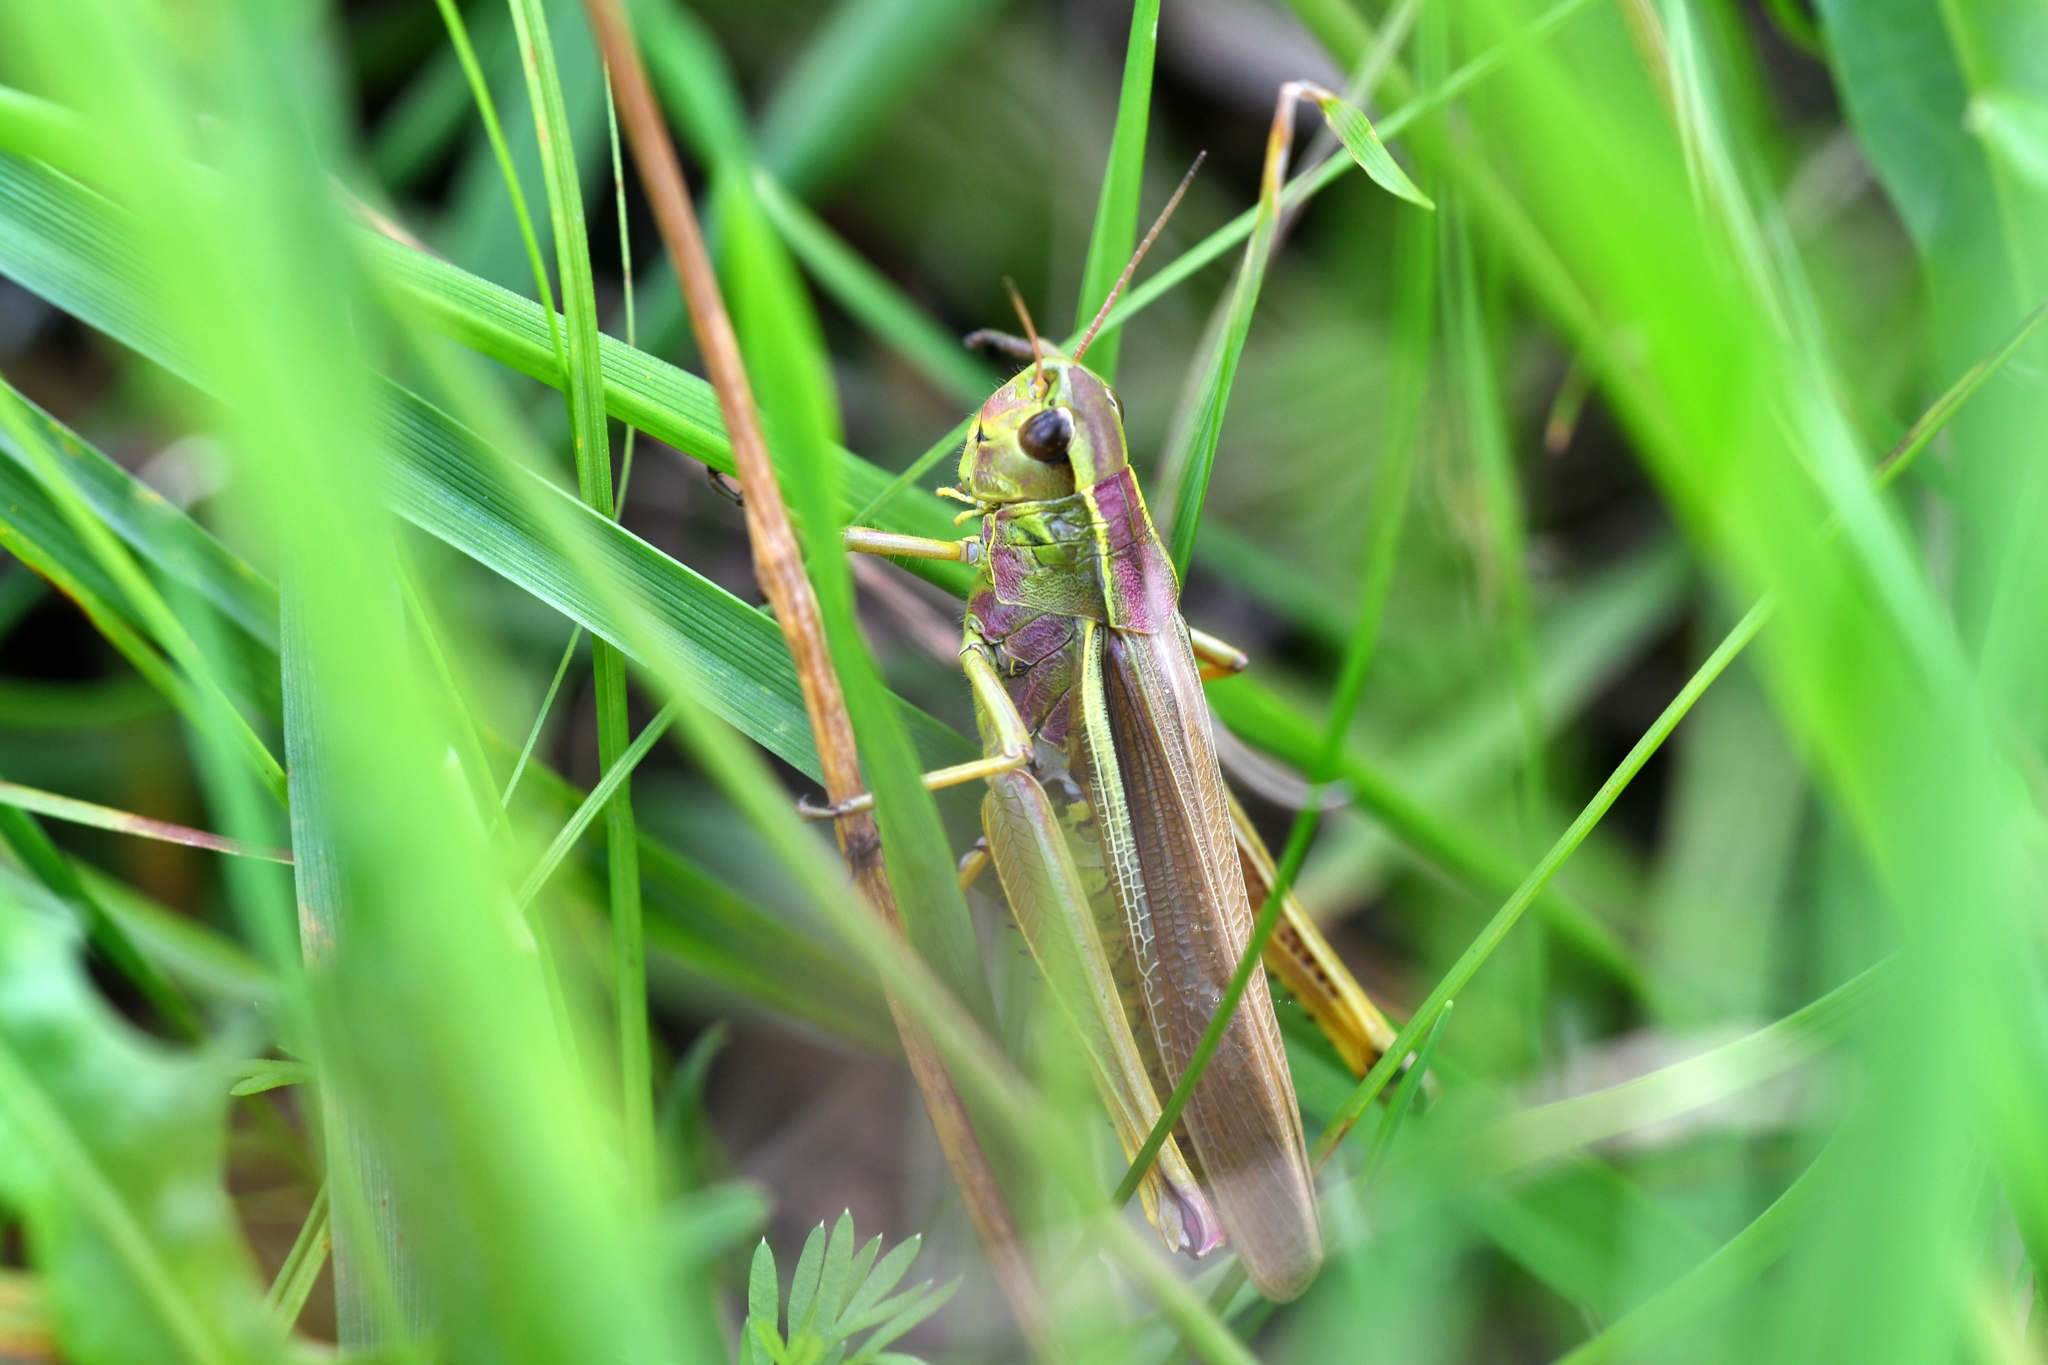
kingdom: Animalia
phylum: Arthropoda
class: Insecta
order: Orthoptera
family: Acrididae
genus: Stethophyma
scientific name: Stethophyma grossum
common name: Large marsh grasshopper
